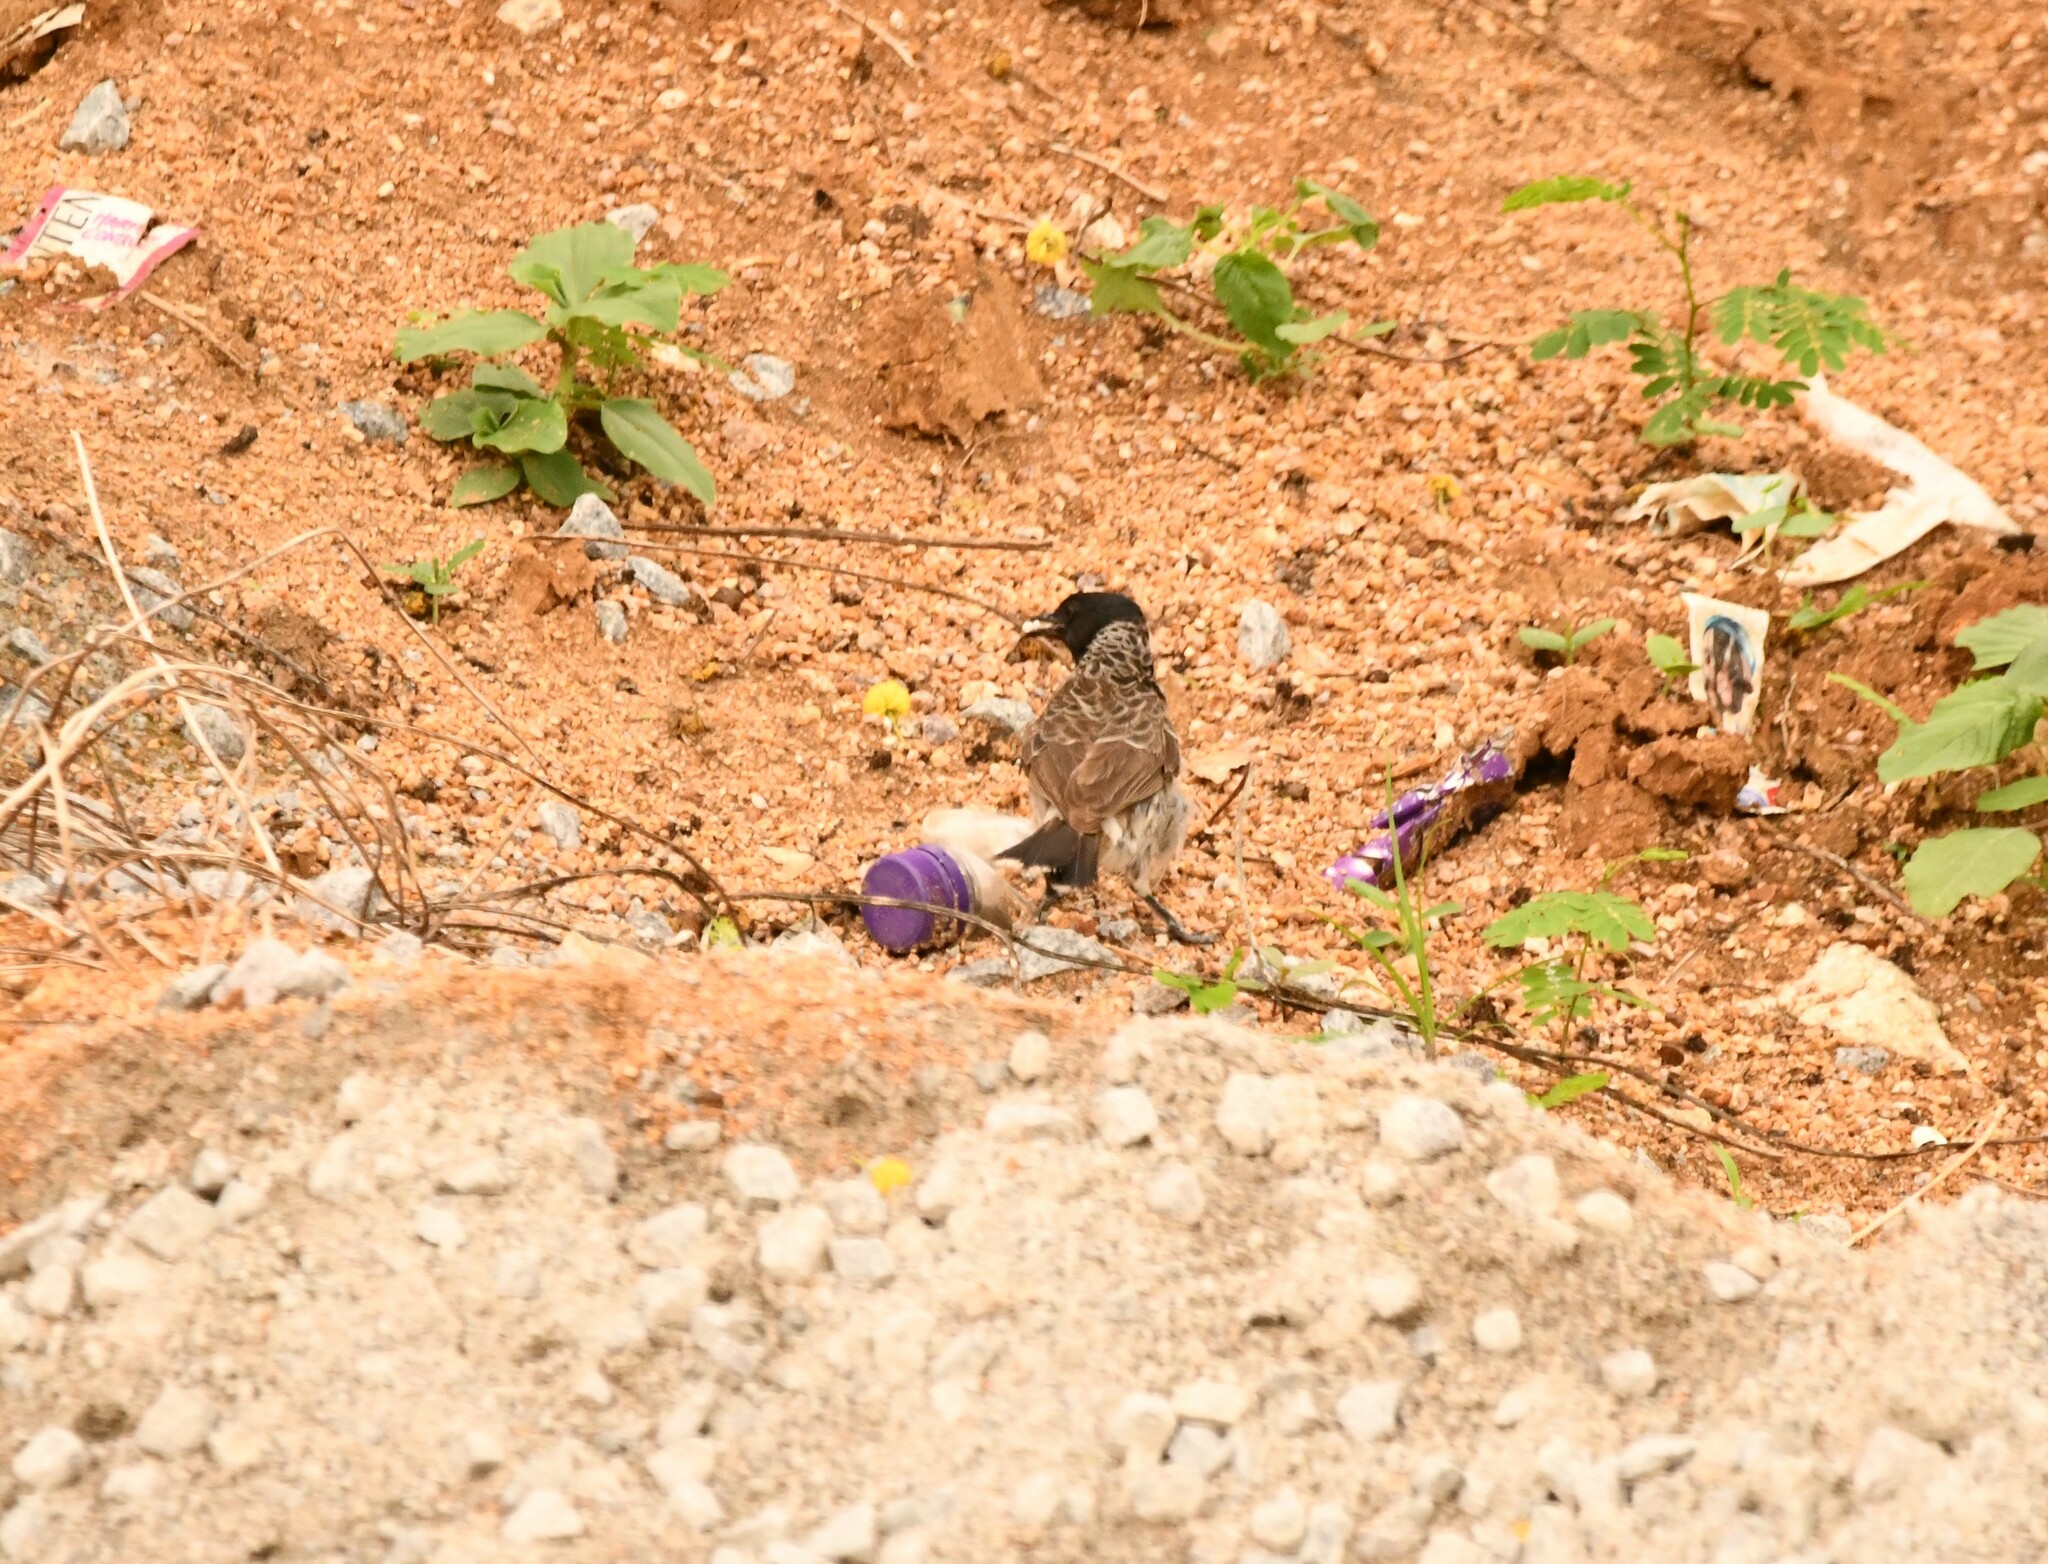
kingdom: Animalia
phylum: Chordata
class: Aves
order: Passeriformes
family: Pycnonotidae
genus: Pycnonotus
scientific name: Pycnonotus cafer
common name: Red-vented bulbul
